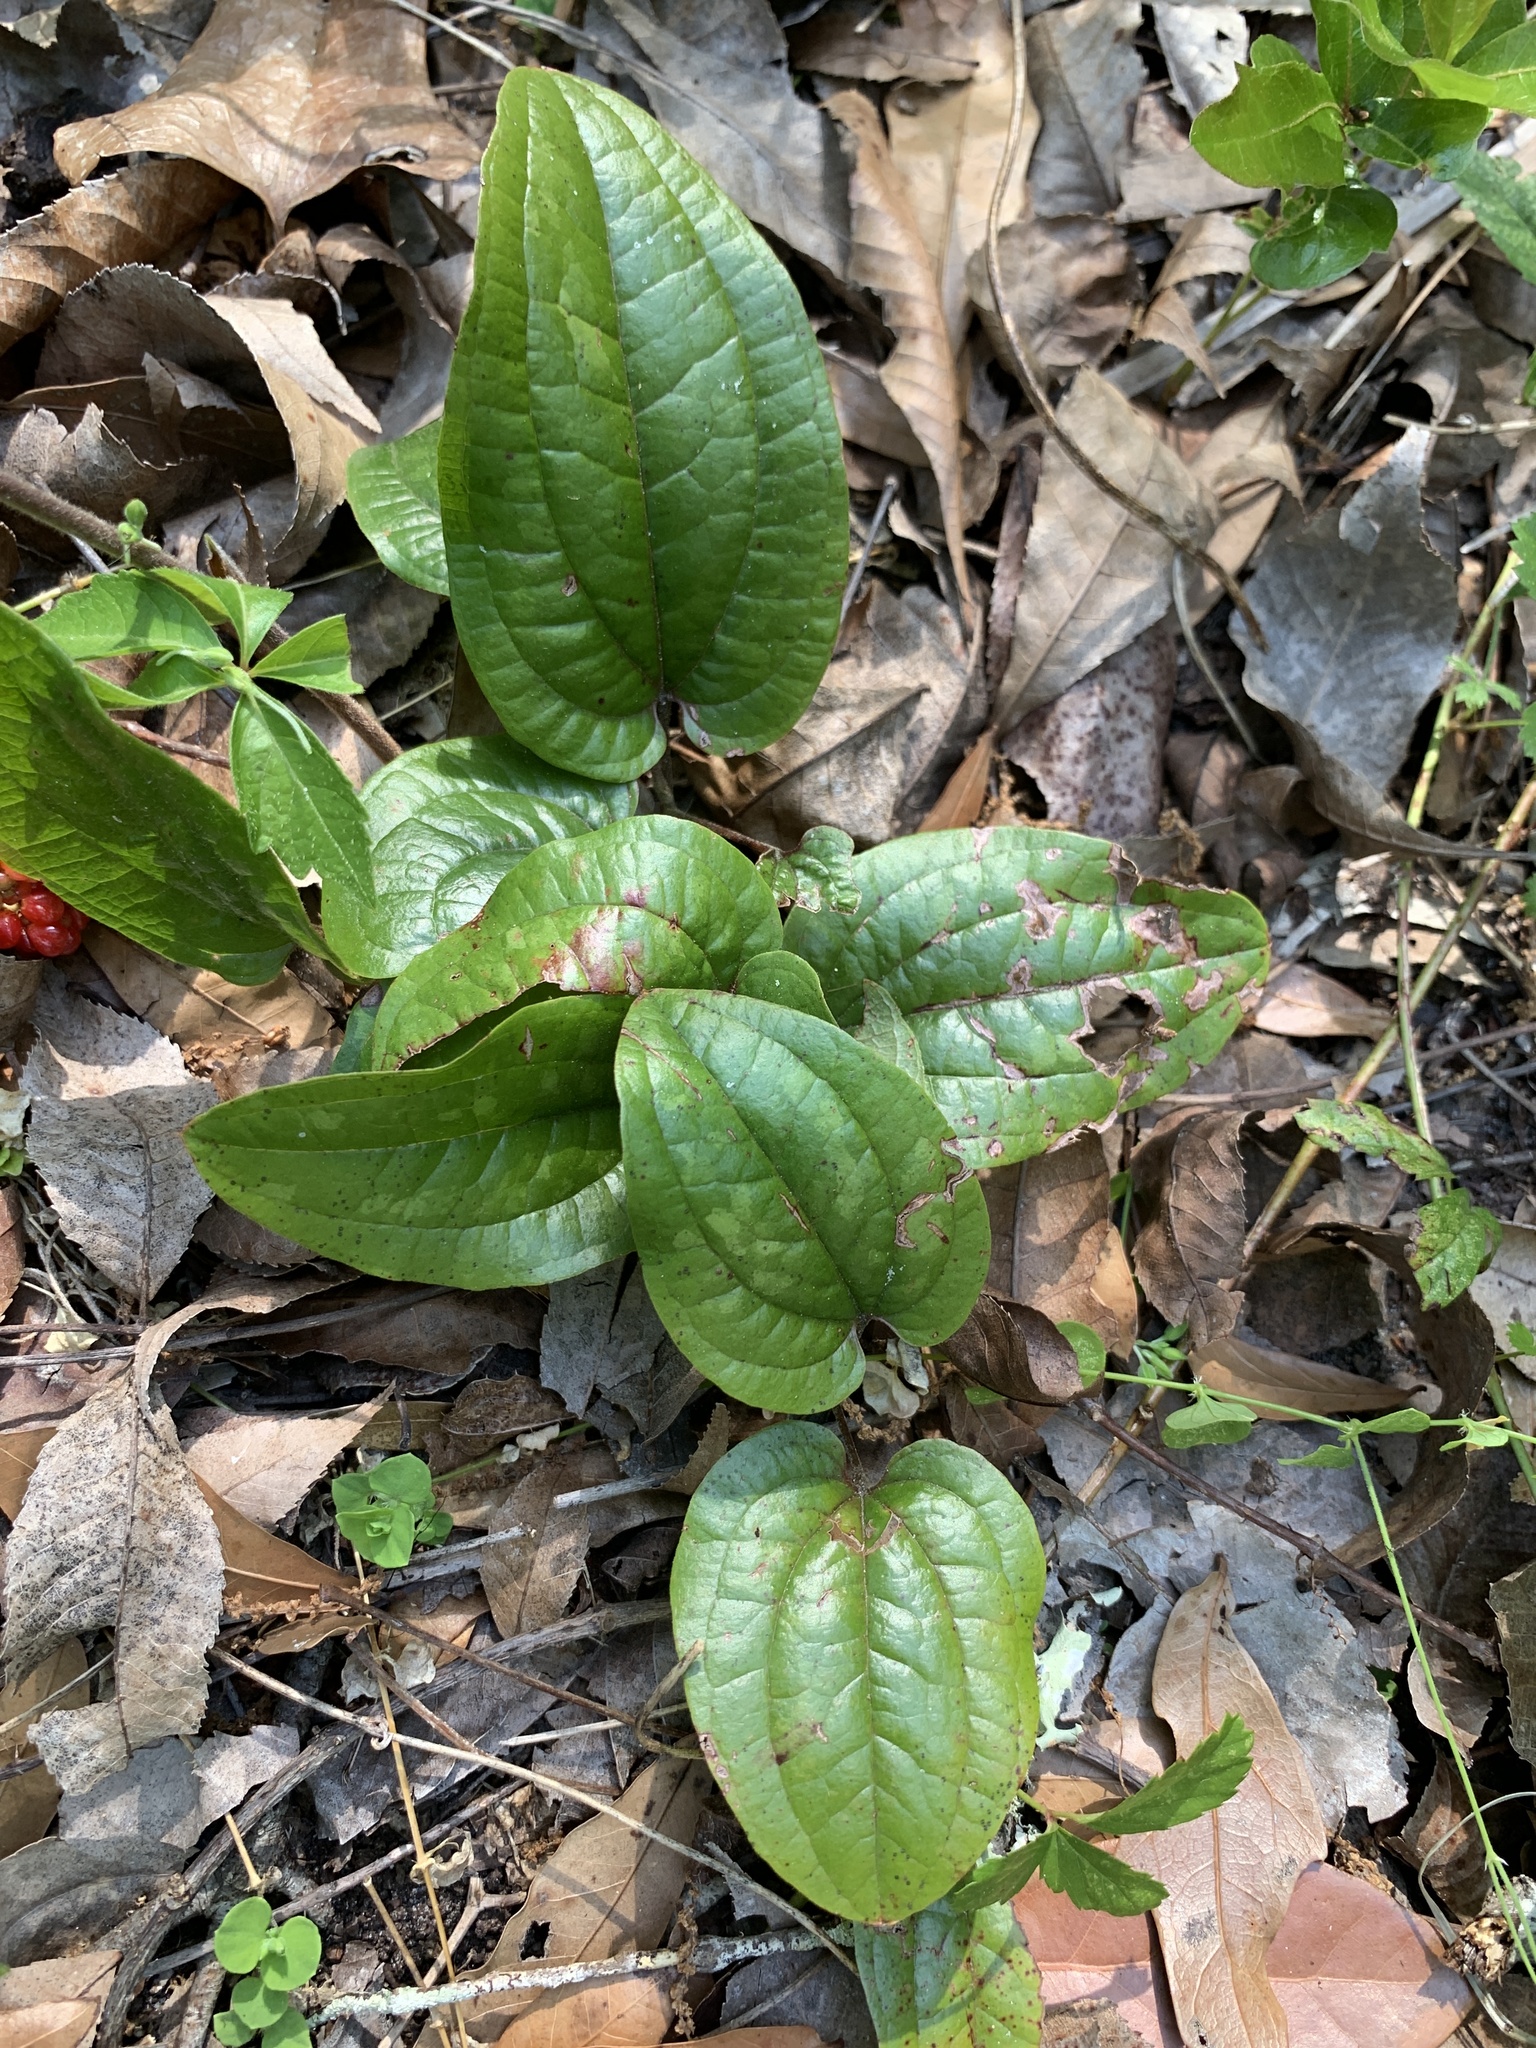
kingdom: Plantae
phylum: Tracheophyta
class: Liliopsida
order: Liliales
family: Smilacaceae
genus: Smilax
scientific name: Smilax pumila
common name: Sarsaparilla-vine
